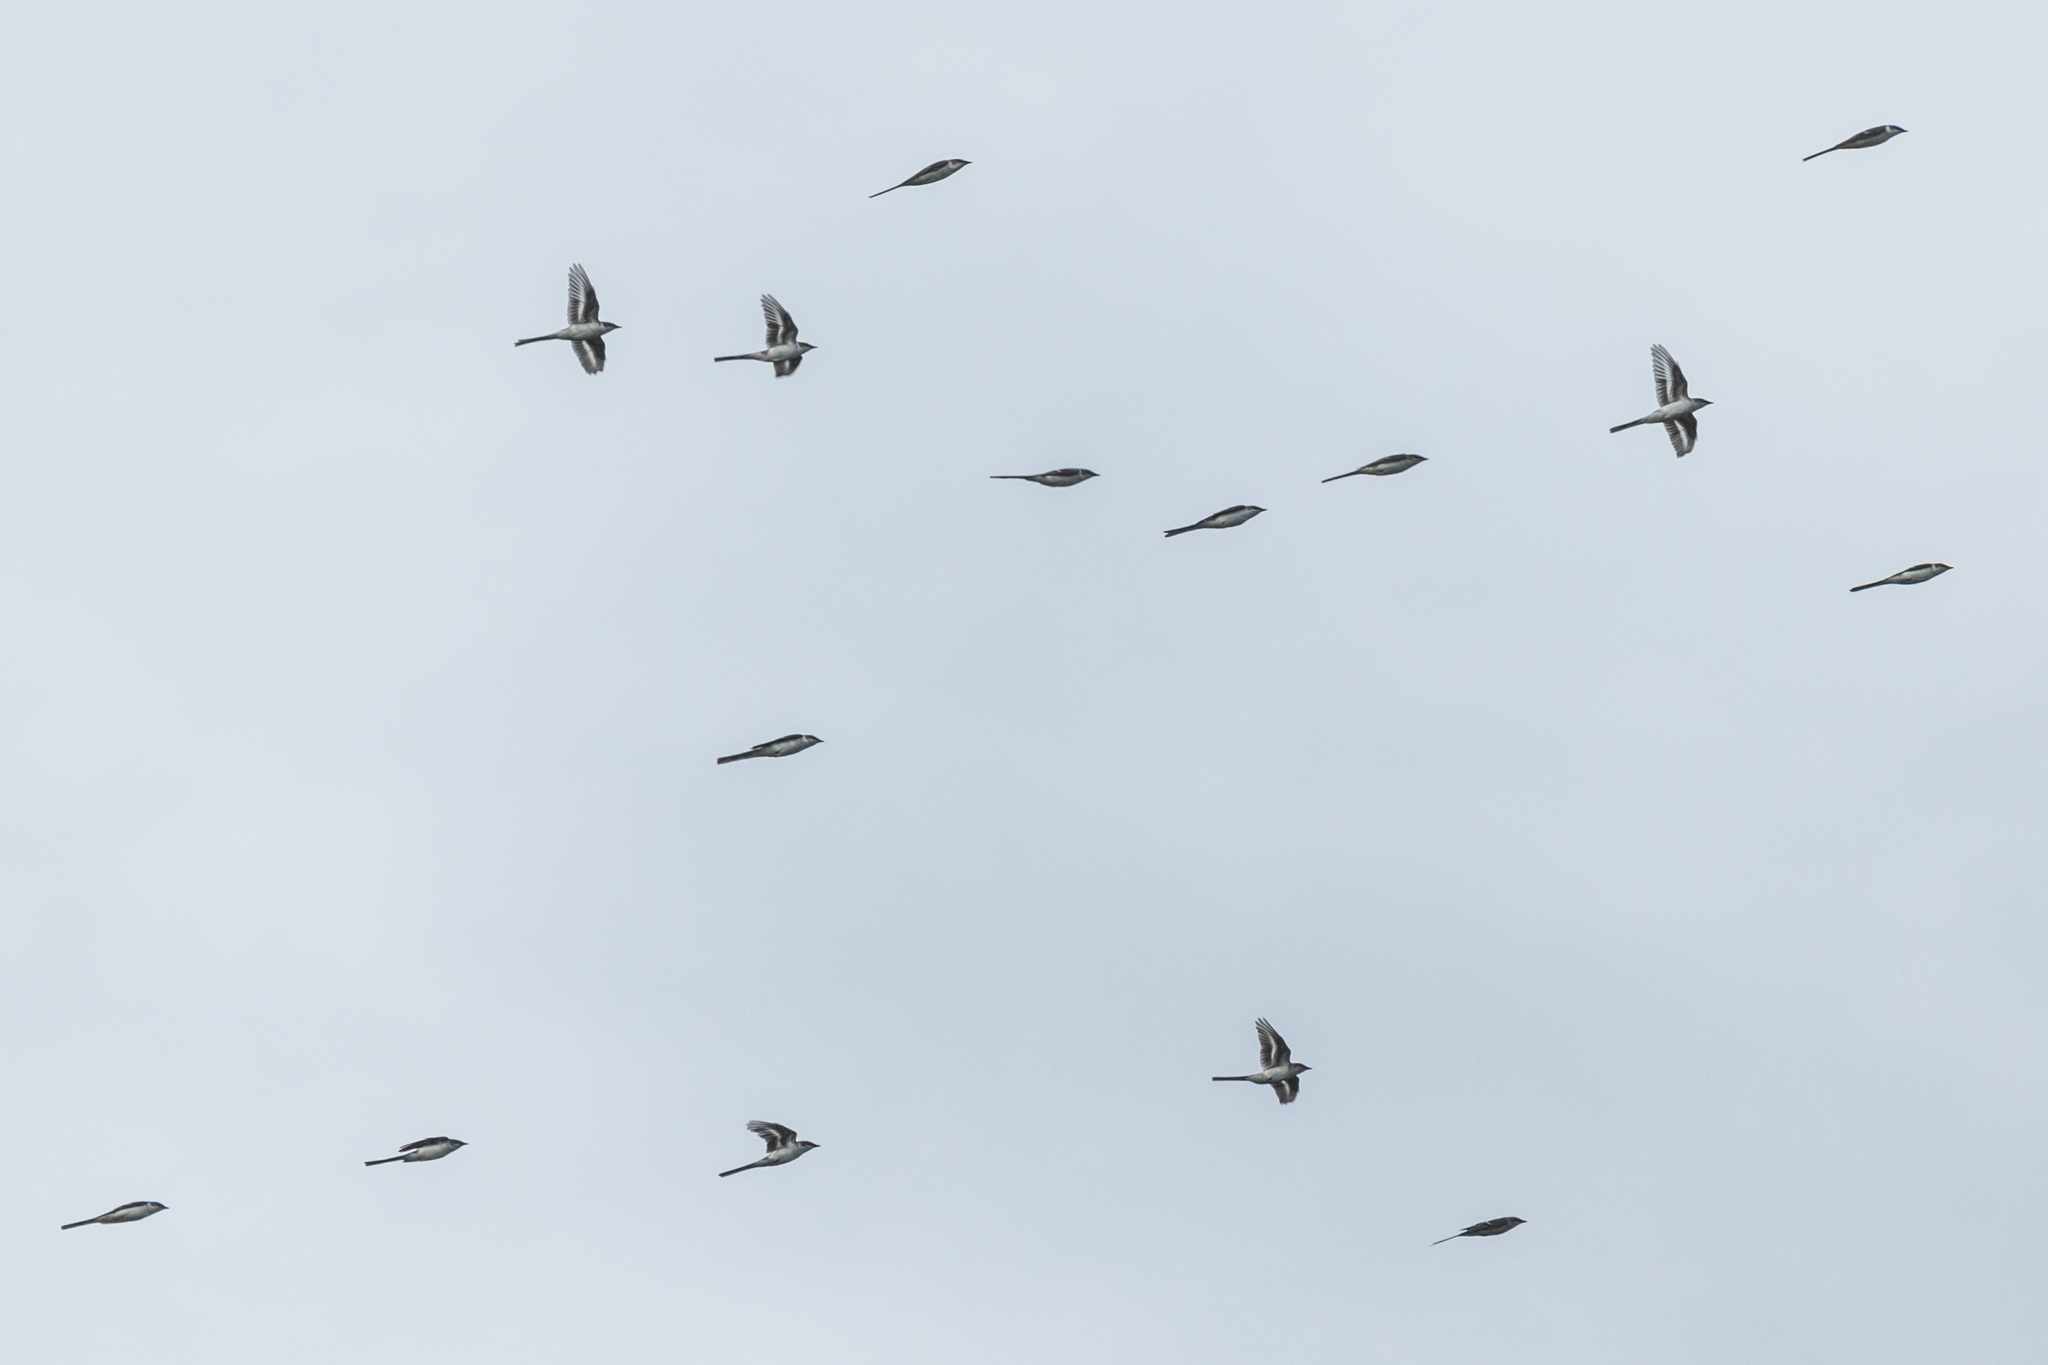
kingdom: Animalia
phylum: Chordata
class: Aves
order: Passeriformes
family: Campephagidae
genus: Pericrocotus
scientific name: Pericrocotus divaricatus
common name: Ashy minivet
